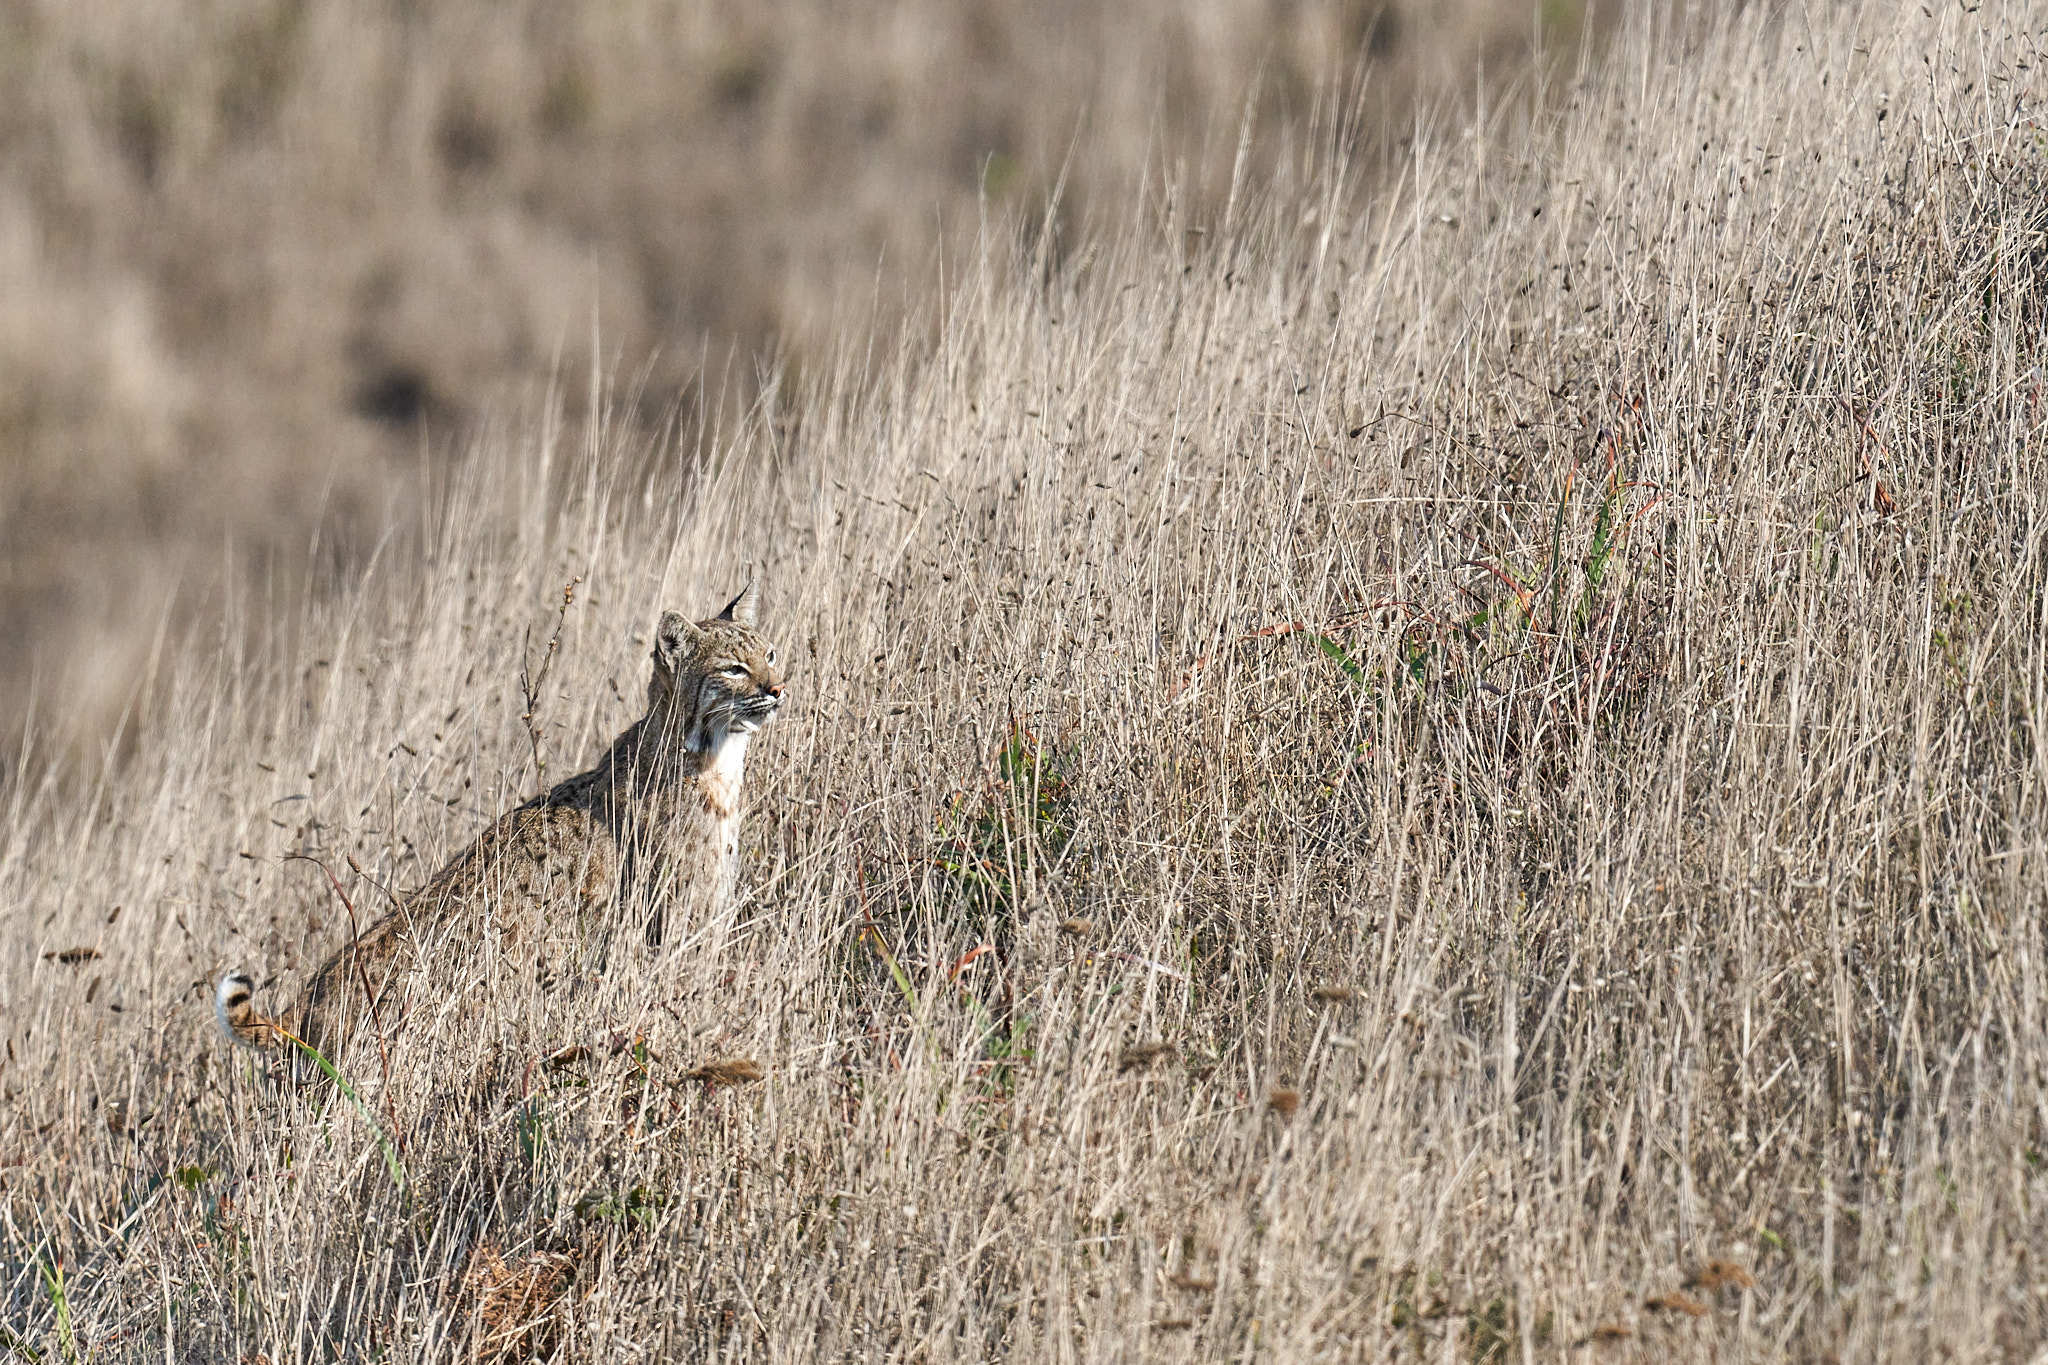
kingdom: Animalia
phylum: Chordata
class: Mammalia
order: Carnivora
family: Felidae
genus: Lynx
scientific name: Lynx rufus
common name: Bobcat
